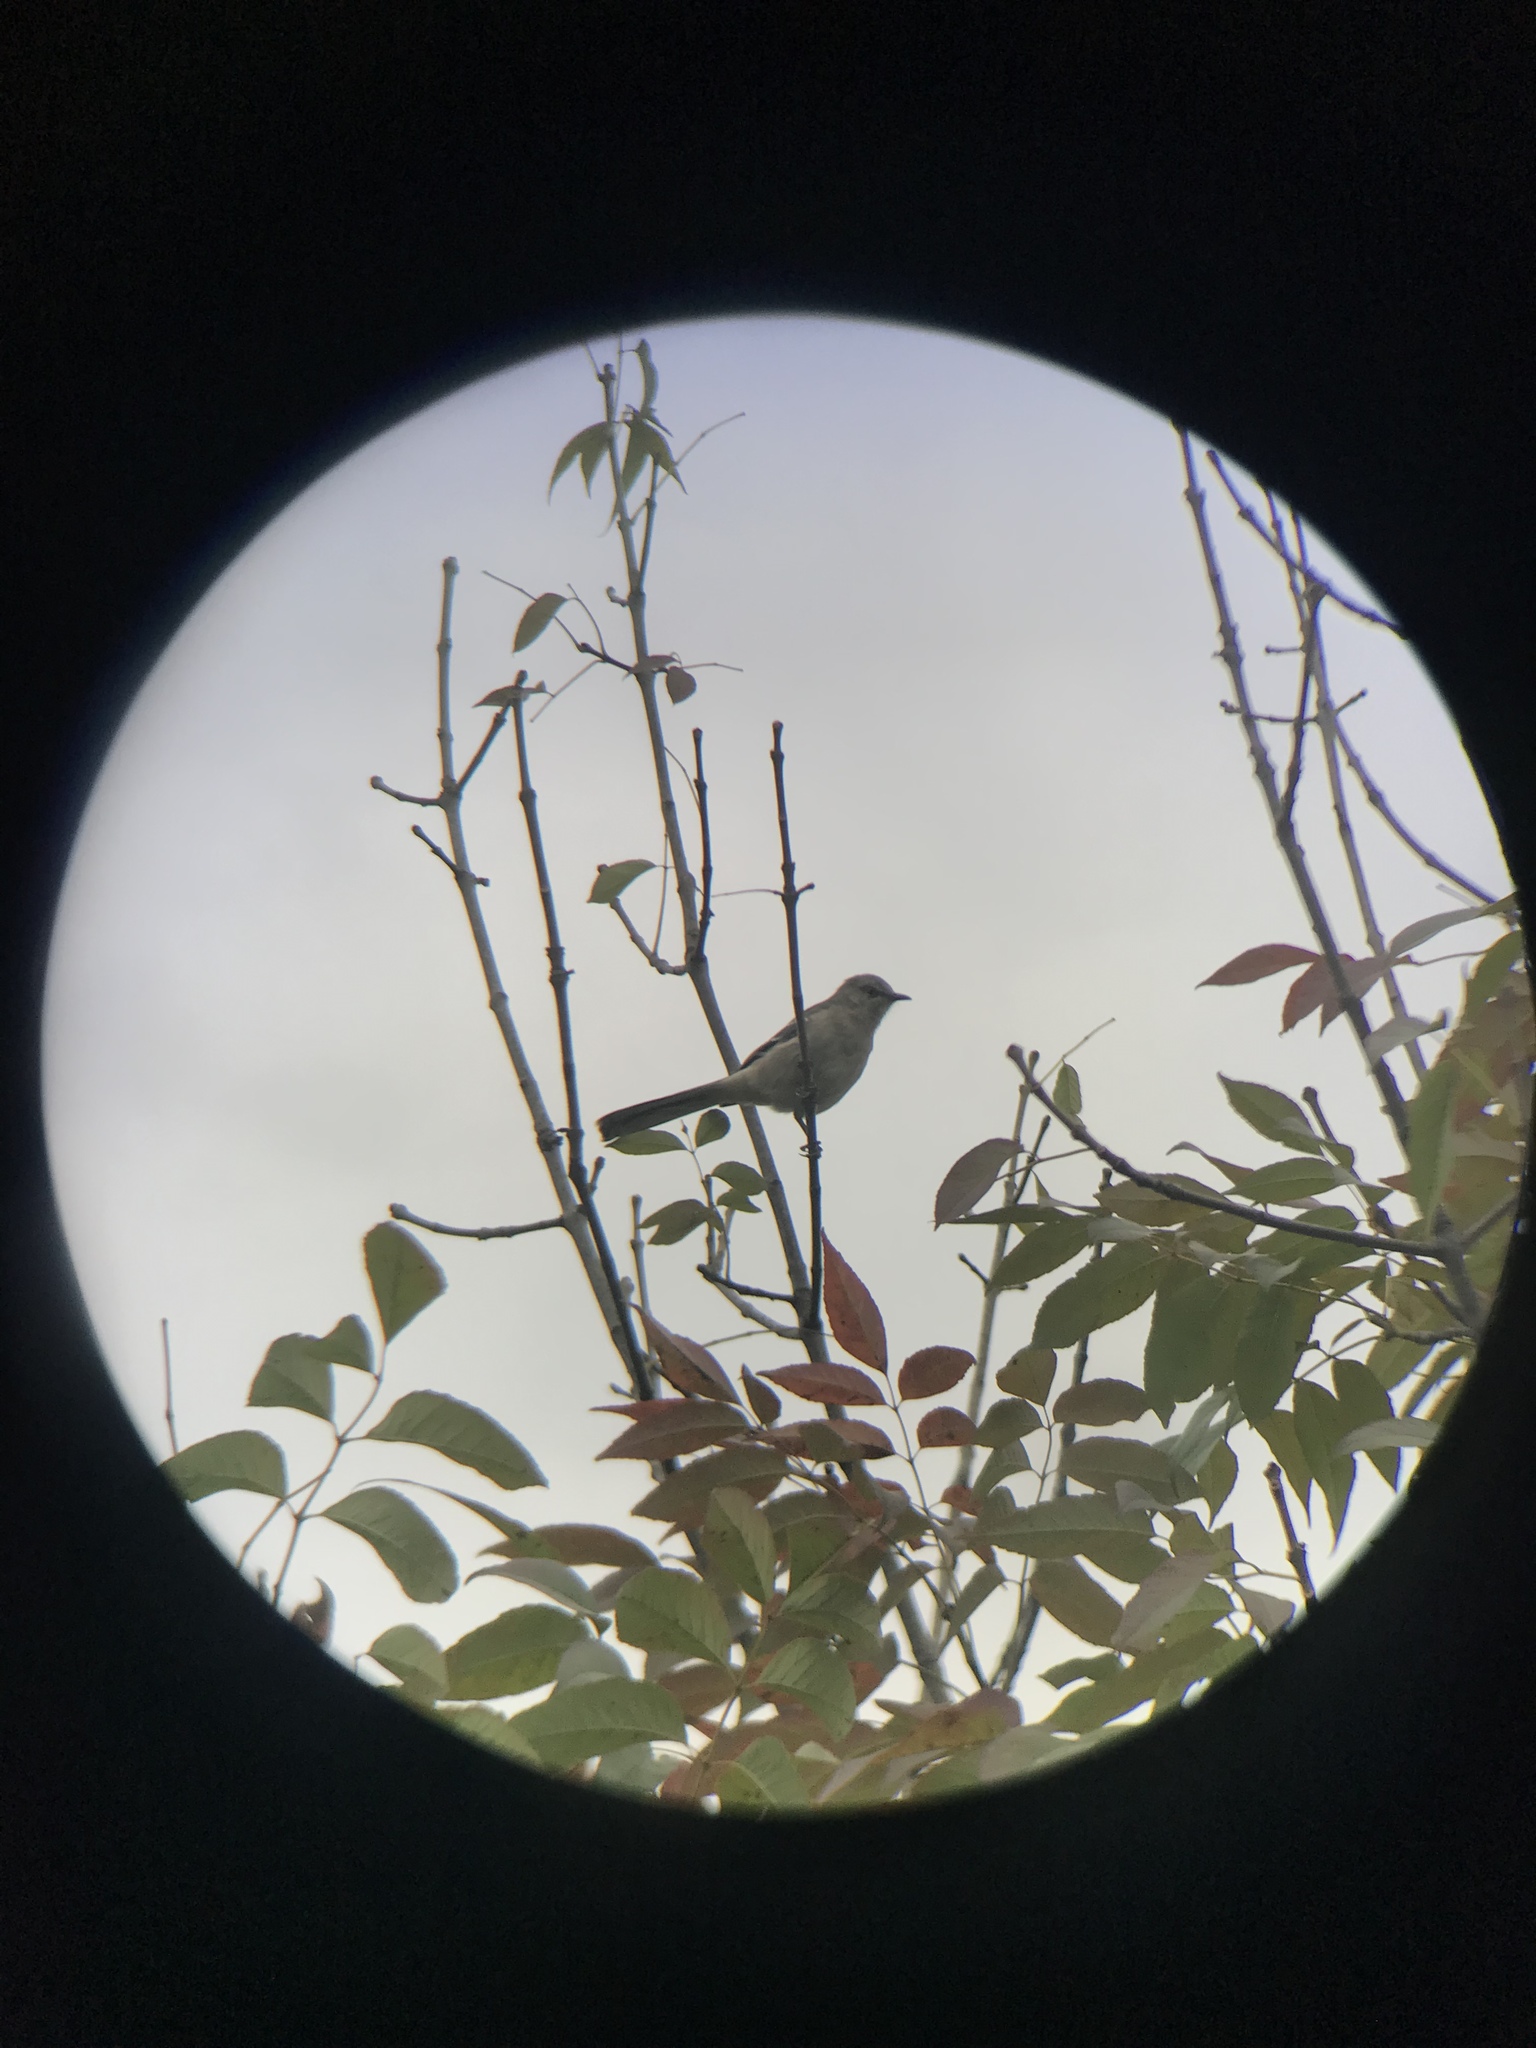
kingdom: Animalia
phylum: Chordata
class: Aves
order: Passeriformes
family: Mimidae
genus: Mimus
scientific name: Mimus polyglottos
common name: Northern mockingbird
